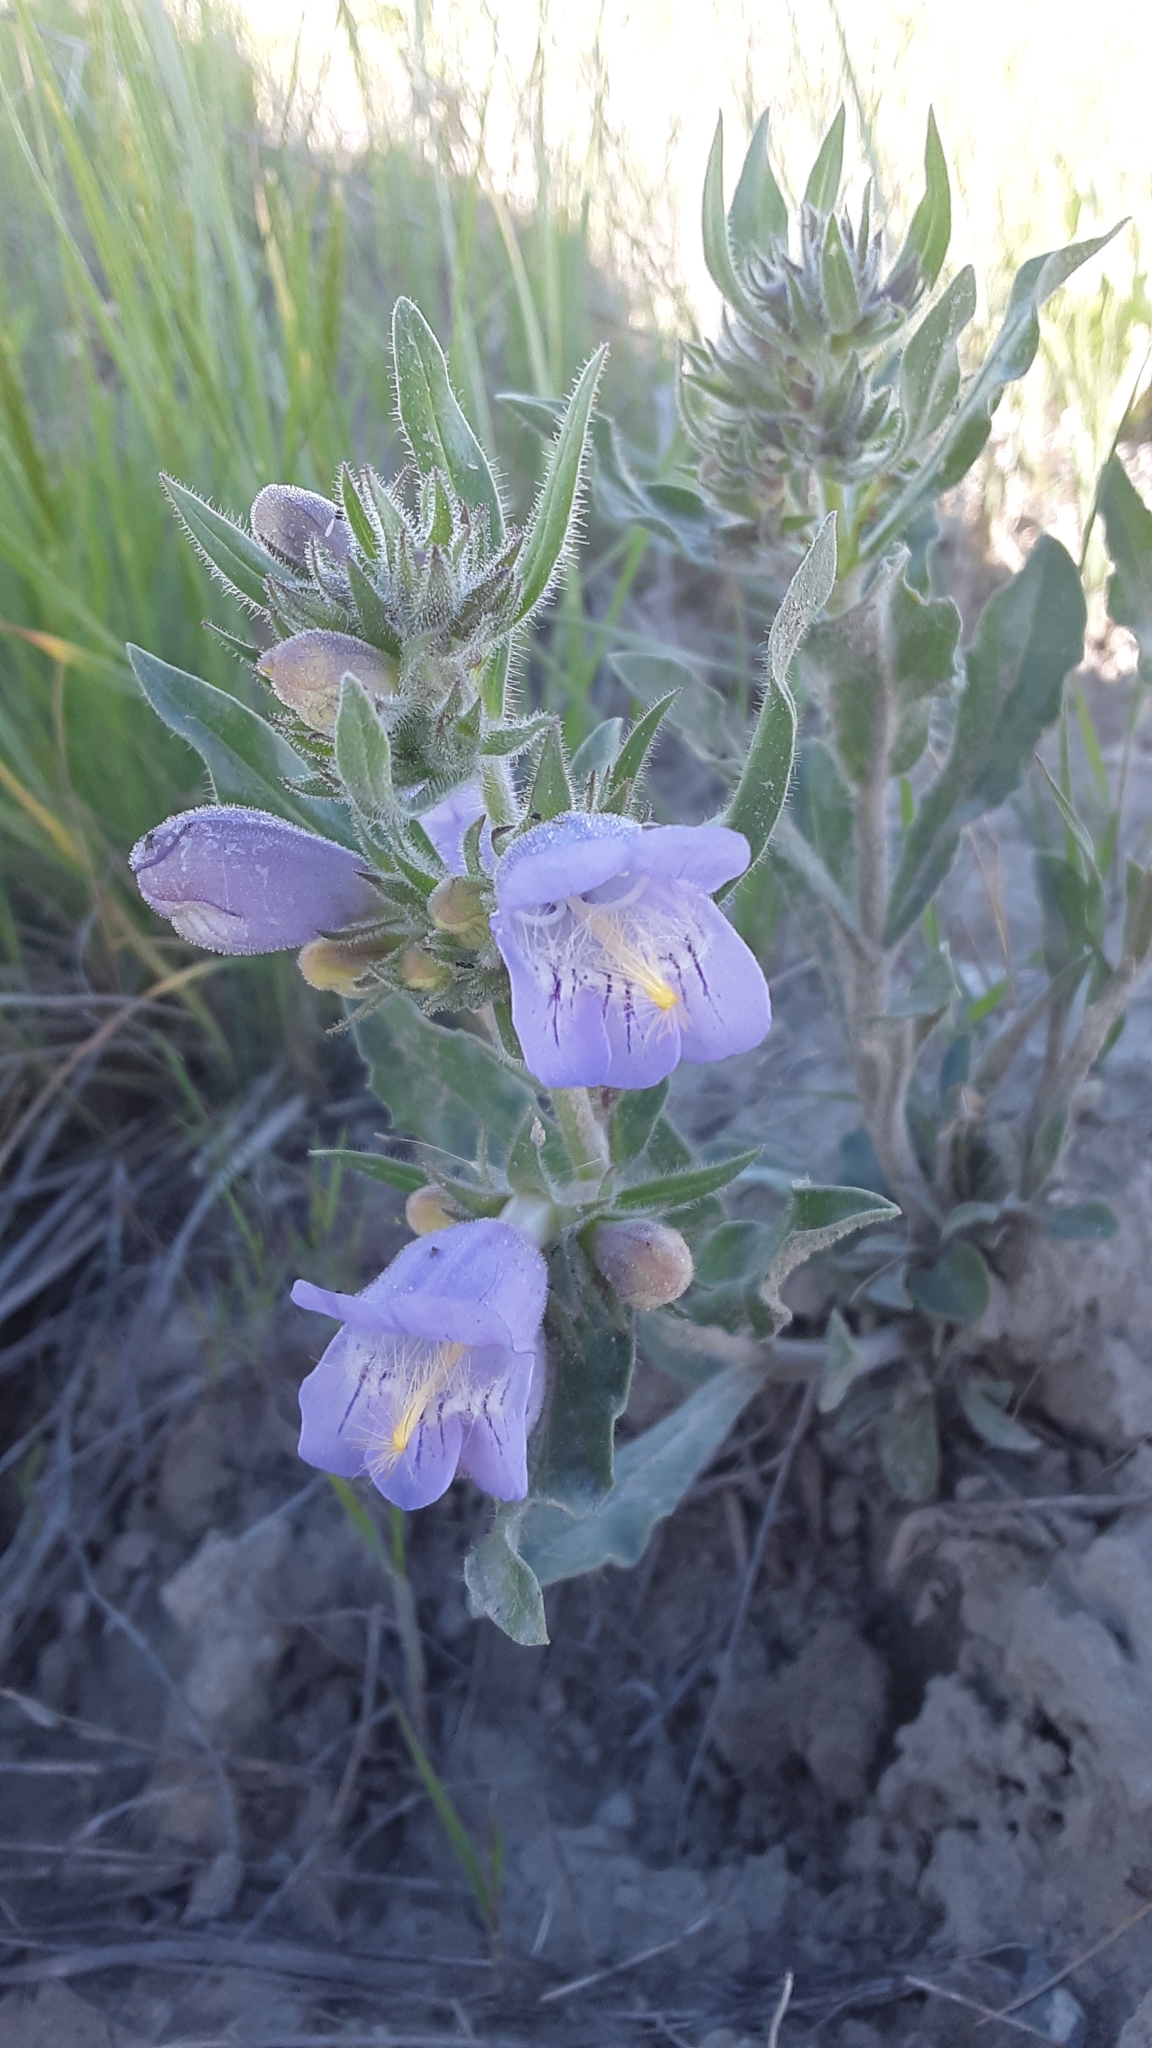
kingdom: Plantae
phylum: Tracheophyta
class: Magnoliopsida
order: Lamiales
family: Plantaginaceae
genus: Penstemon
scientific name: Penstemon eriantherus
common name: Crested beardtongue
